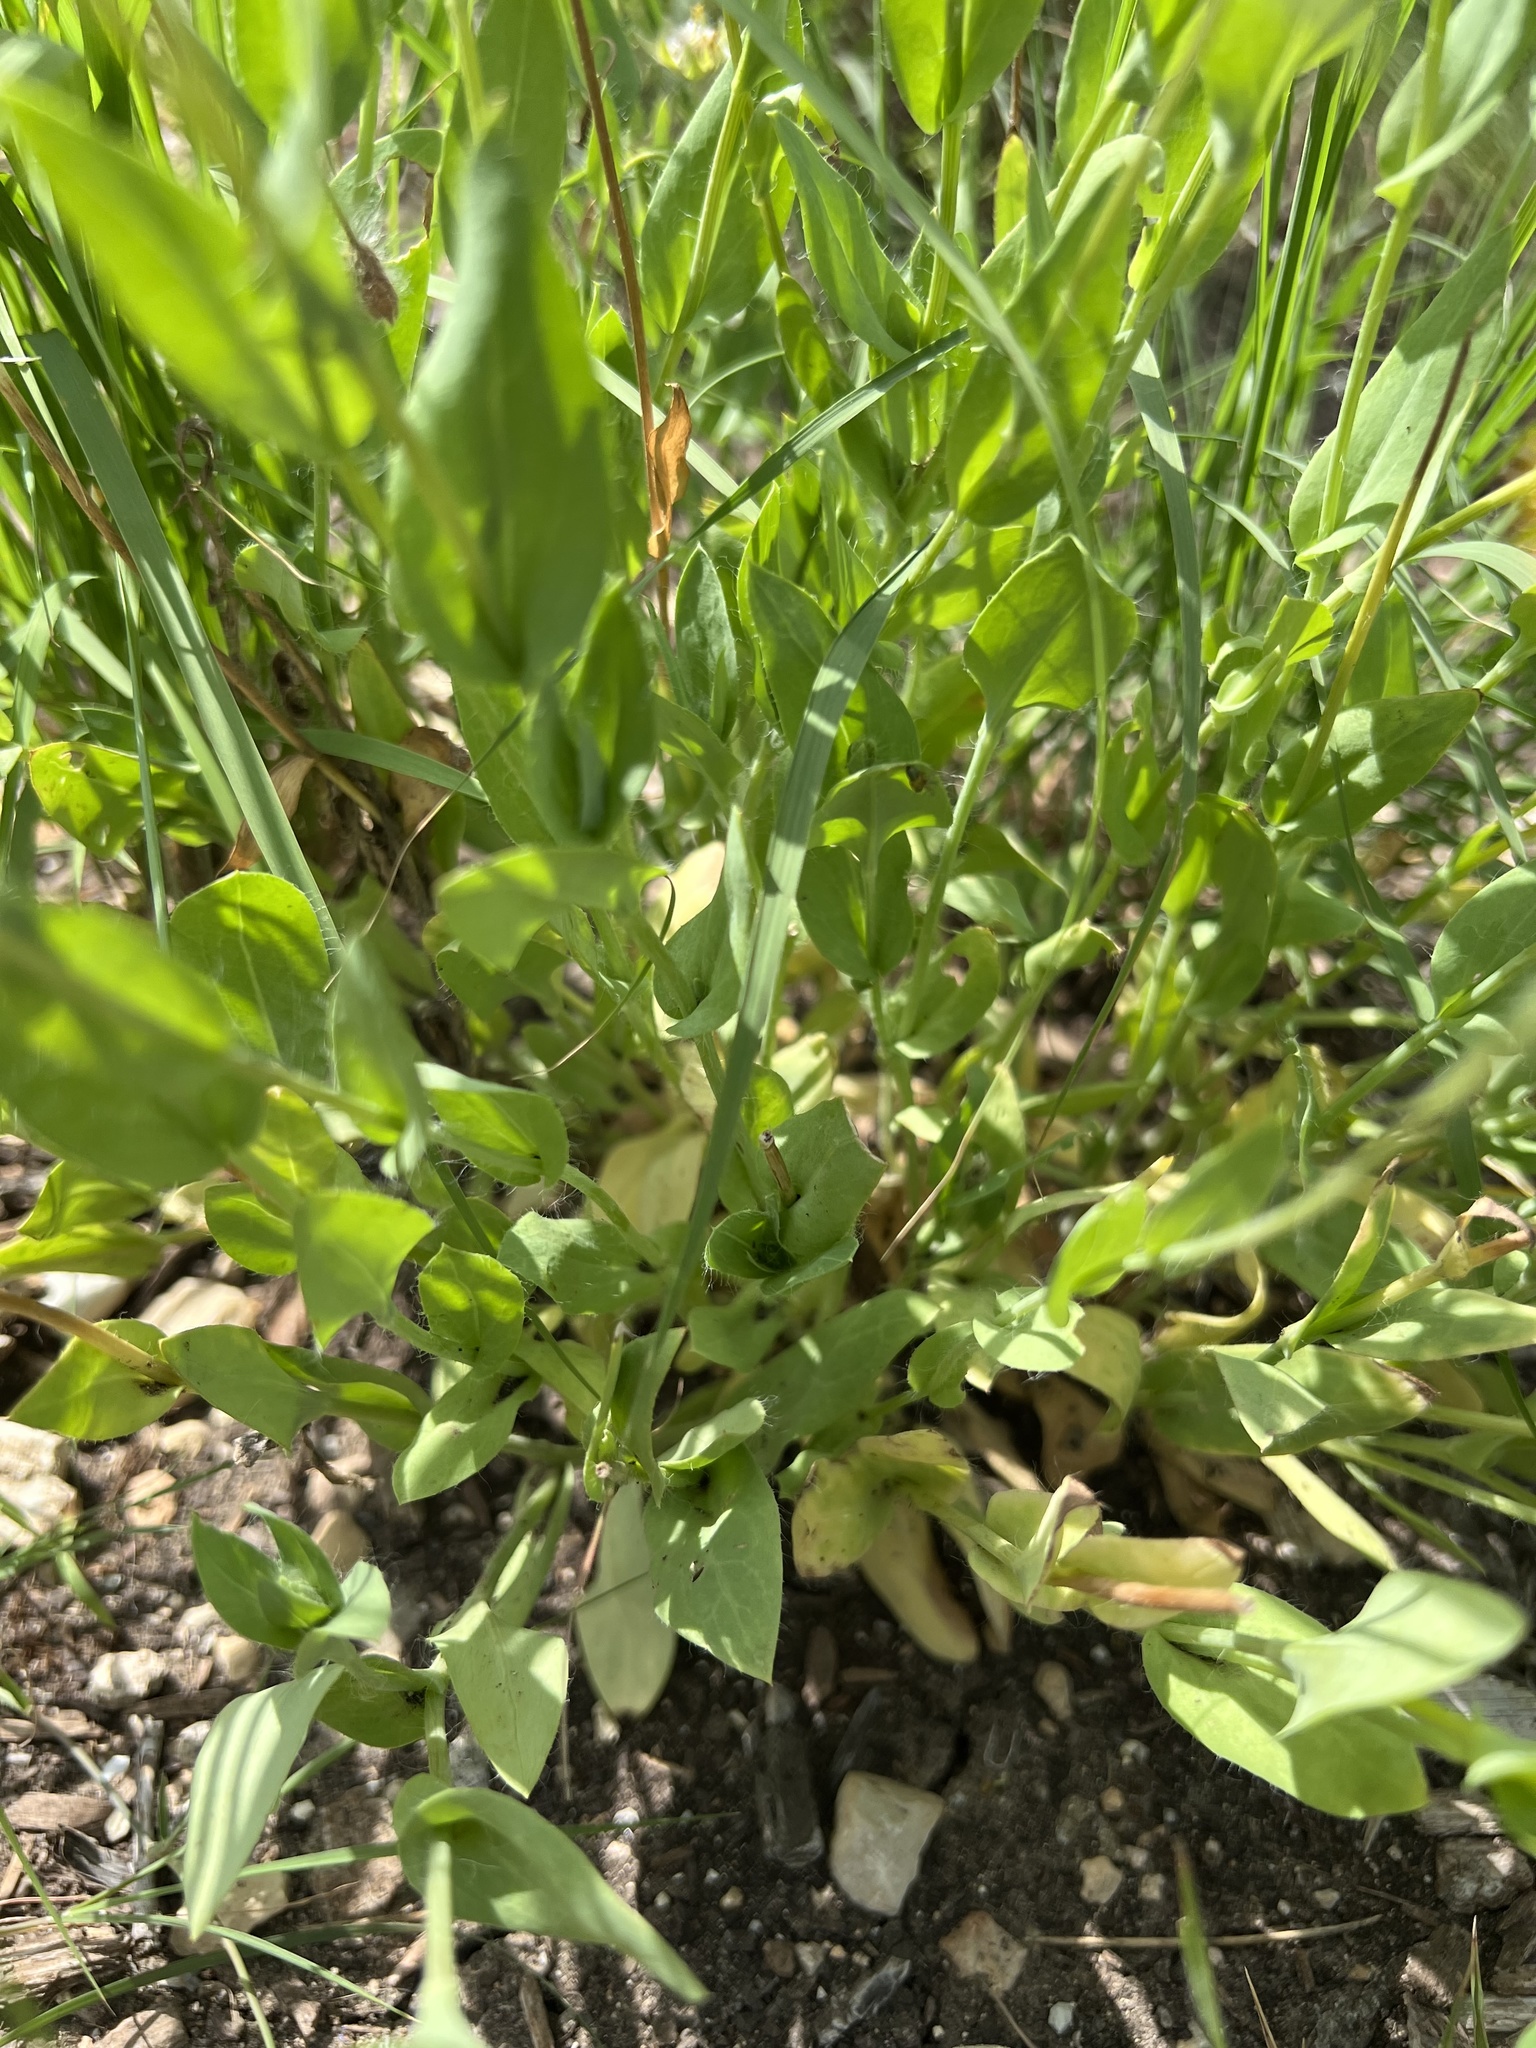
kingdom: Plantae
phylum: Tracheophyta
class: Magnoliopsida
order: Asterales
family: Asteraceae
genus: Amblyolepis
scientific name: Amblyolepis setigera
